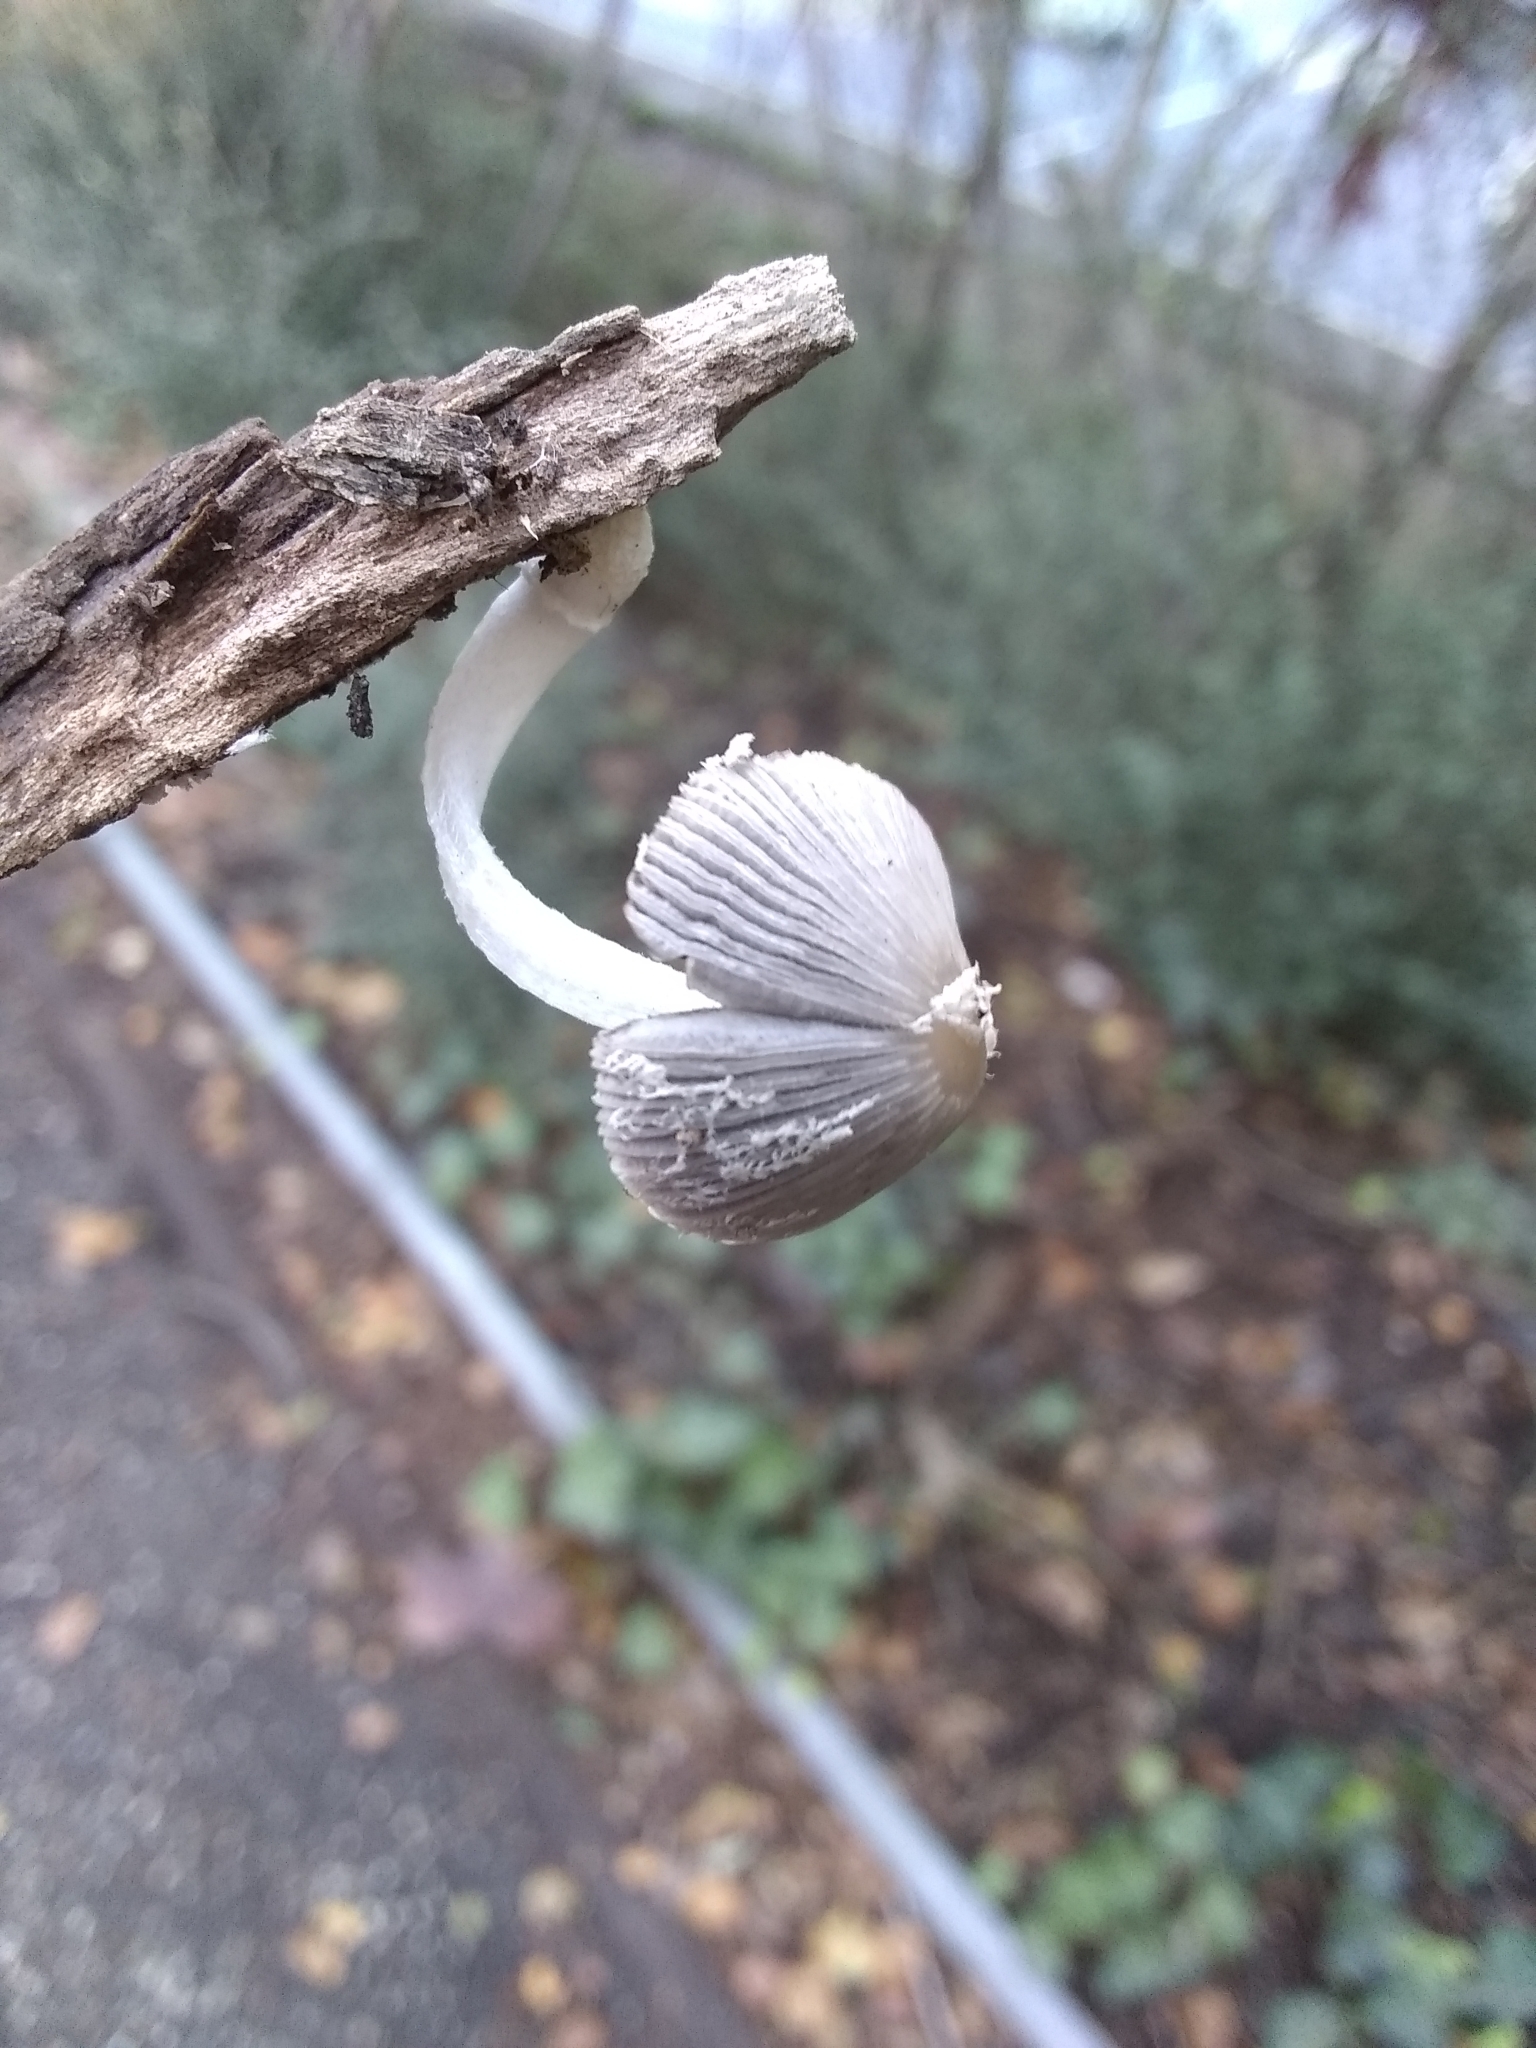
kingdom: Fungi
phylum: Basidiomycota
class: Agaricomycetes
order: Agaricales
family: Psathyrellaceae
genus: Coprinopsis
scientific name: Coprinopsis lagopus
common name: Hare'sfoot inkcap
